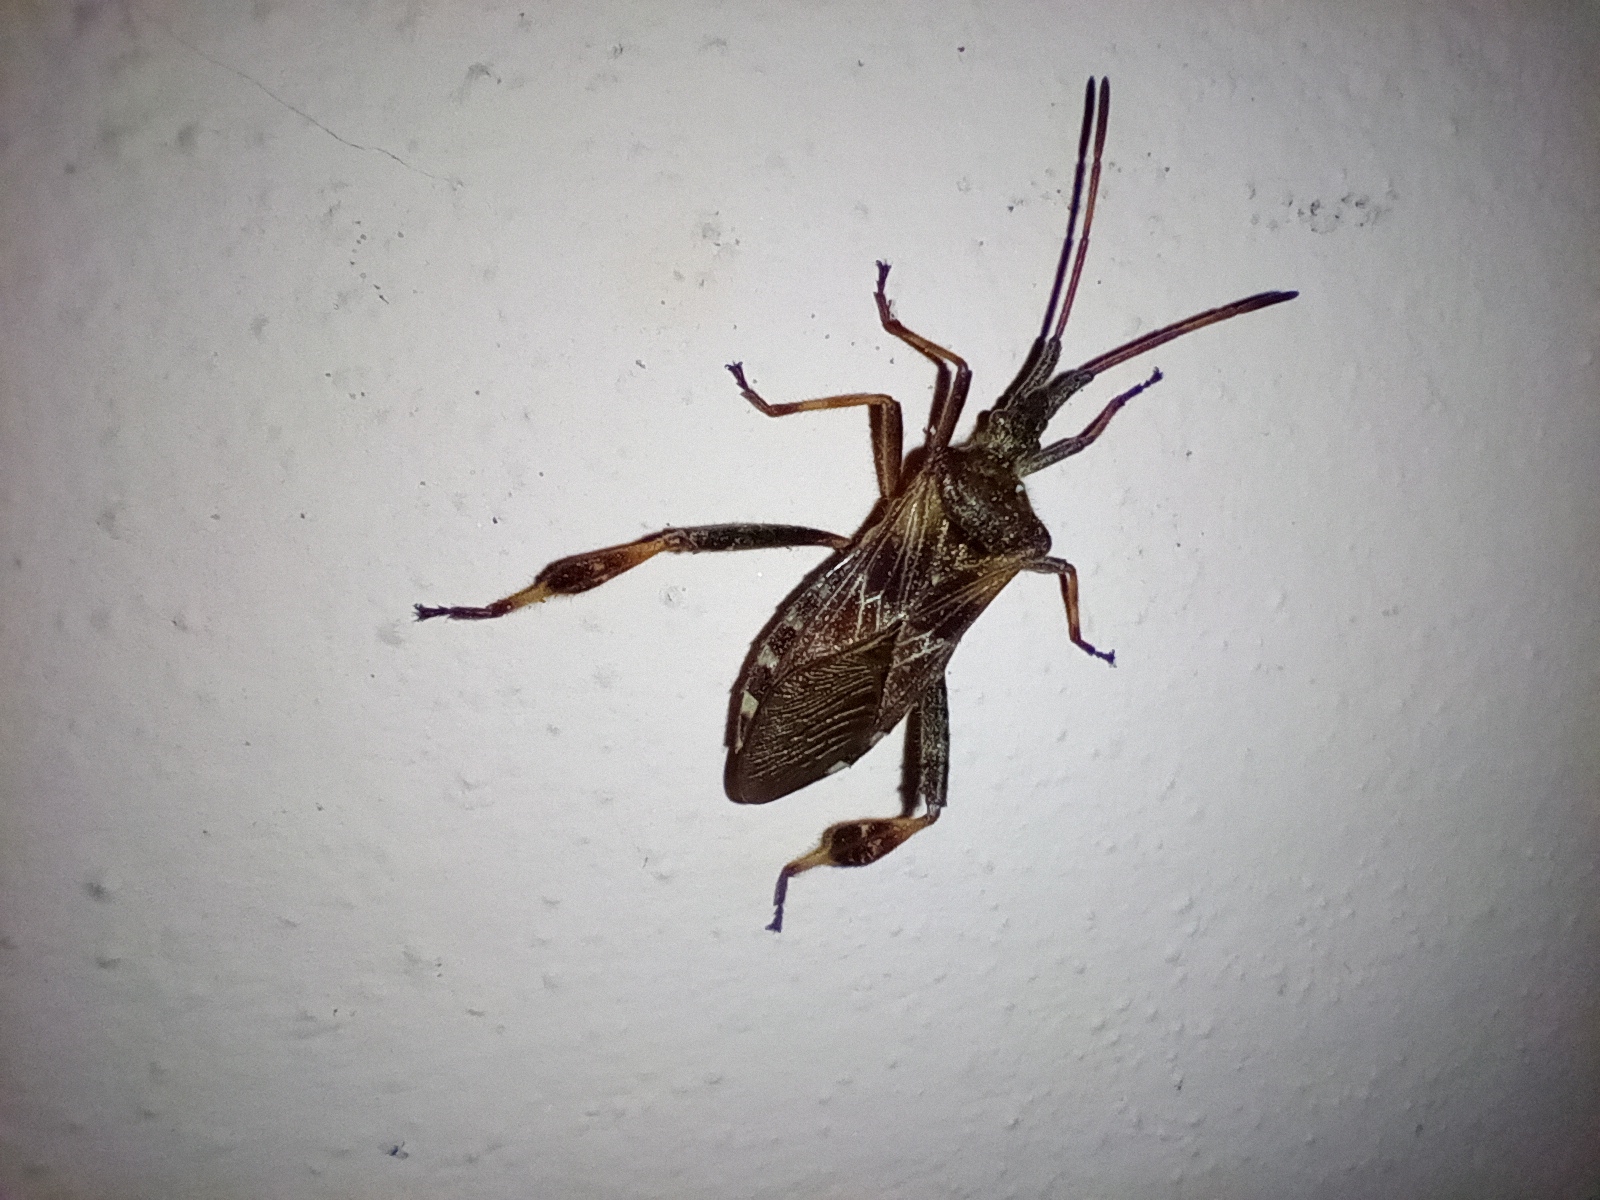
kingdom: Animalia
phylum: Arthropoda
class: Insecta
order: Hemiptera
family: Coreidae
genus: Leptoglossus
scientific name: Leptoglossus occidentalis
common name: Western conifer-seed bug
